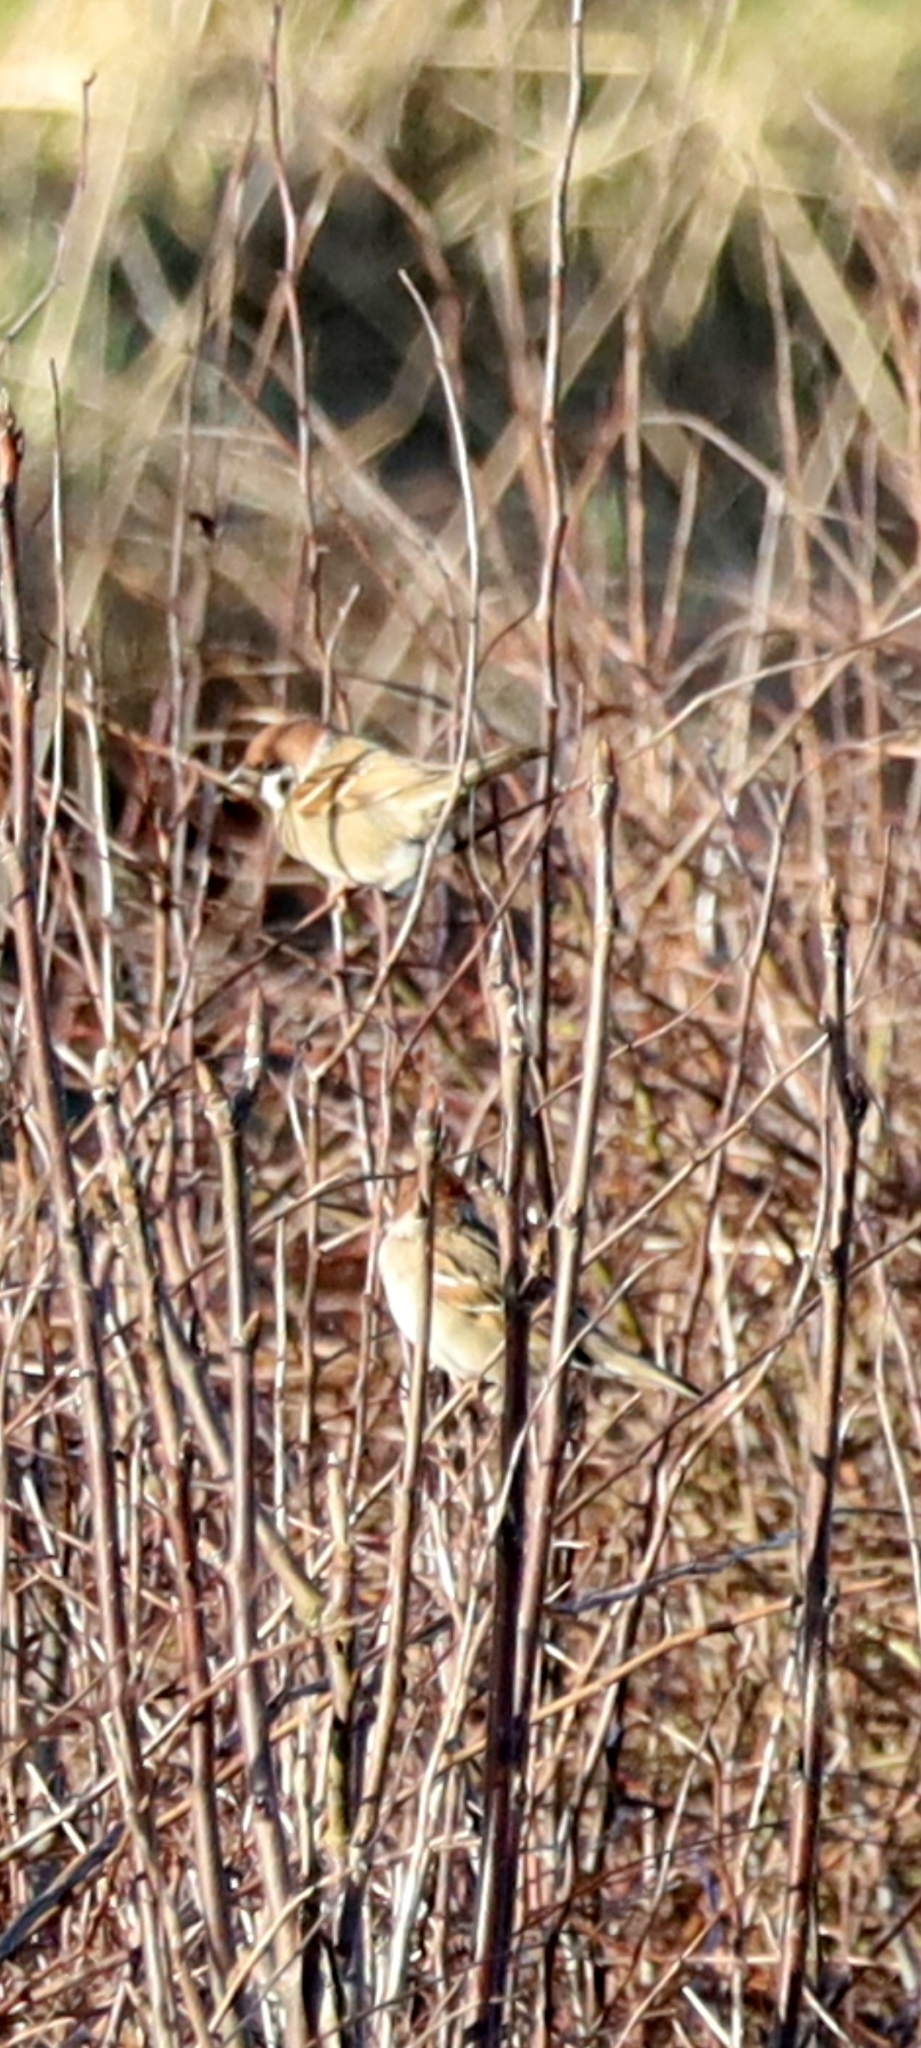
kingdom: Animalia
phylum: Chordata
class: Aves
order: Passeriformes
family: Passeridae
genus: Passer
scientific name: Passer montanus
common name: Eurasian tree sparrow
